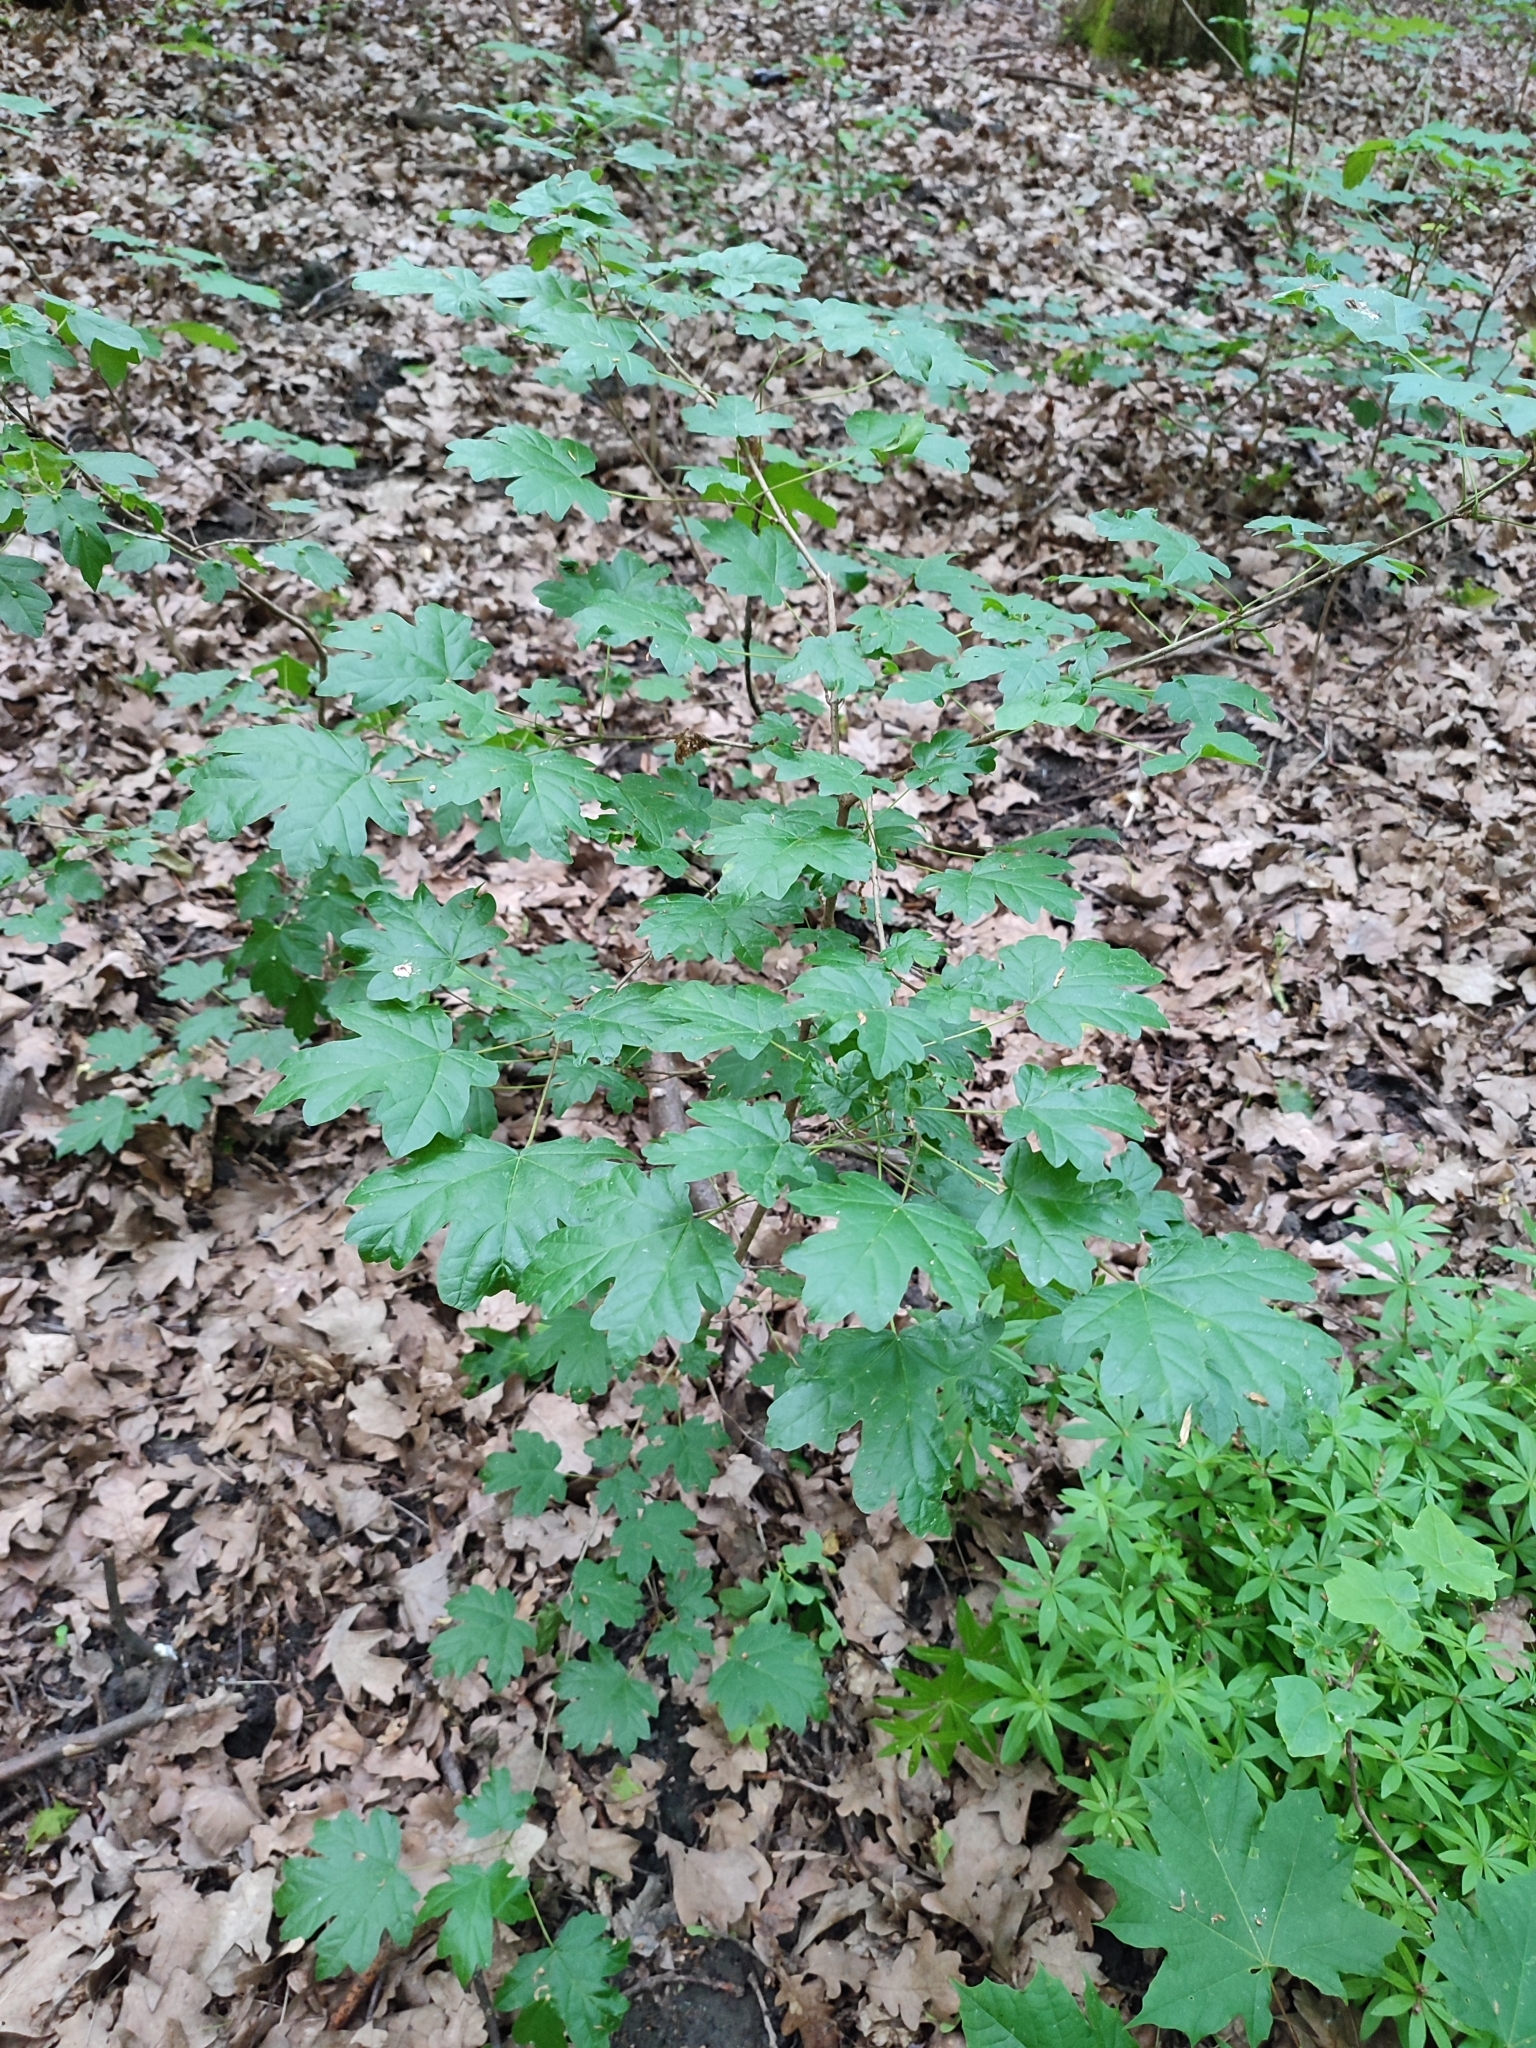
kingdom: Plantae
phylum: Tracheophyta
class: Magnoliopsida
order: Sapindales
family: Sapindaceae
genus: Acer
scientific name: Acer campestre
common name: Field maple
